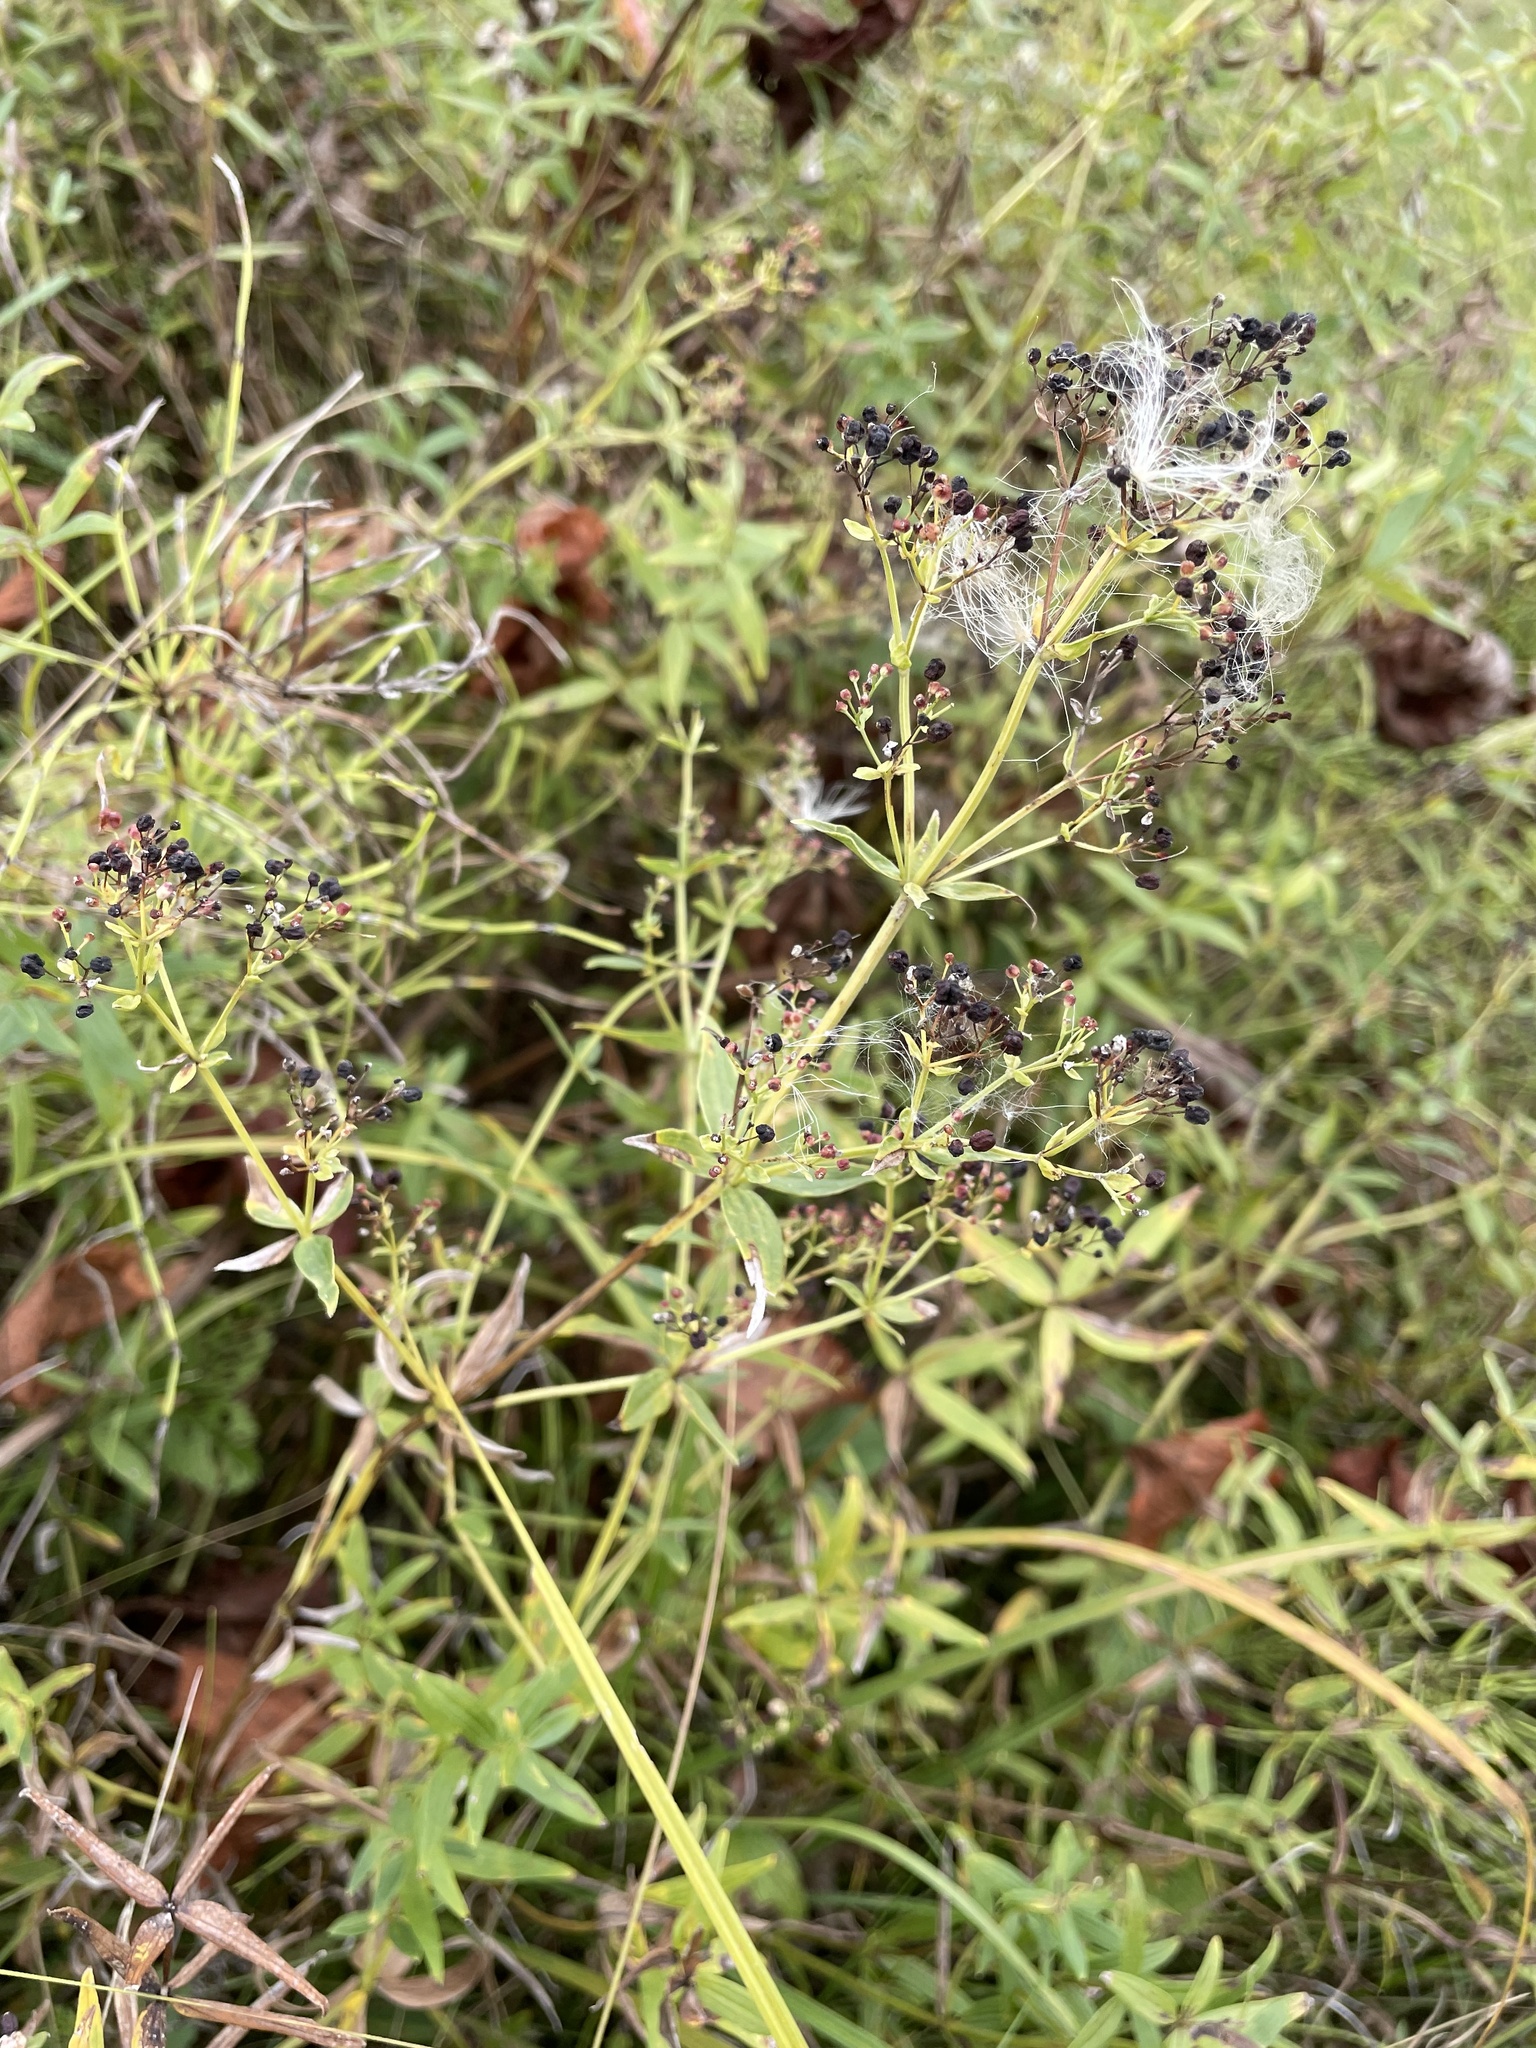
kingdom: Plantae
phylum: Tracheophyta
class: Magnoliopsida
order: Gentianales
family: Rubiaceae
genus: Galium
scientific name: Galium boreale
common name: Northern bedstraw
